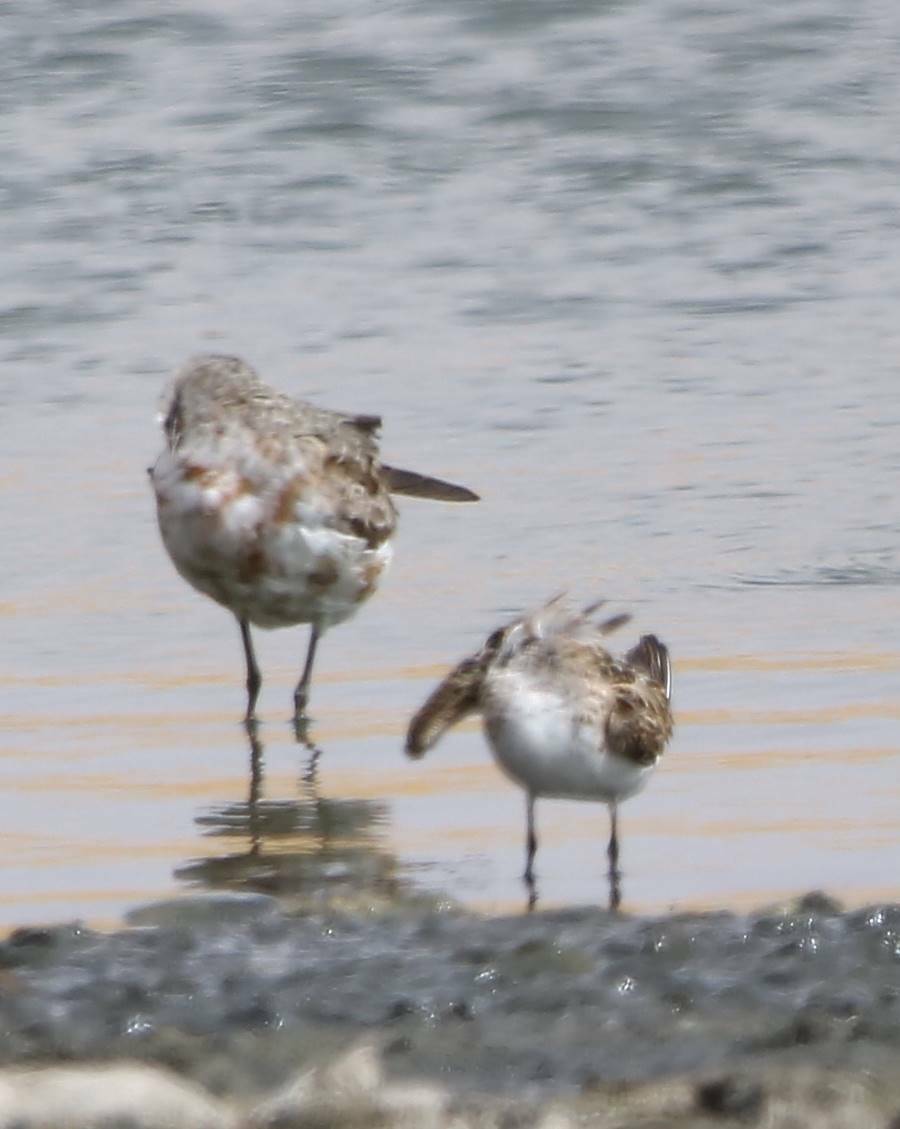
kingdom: Animalia
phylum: Chordata
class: Aves
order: Charadriiformes
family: Scolopacidae
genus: Calidris
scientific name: Calidris minuta
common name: Little stint
